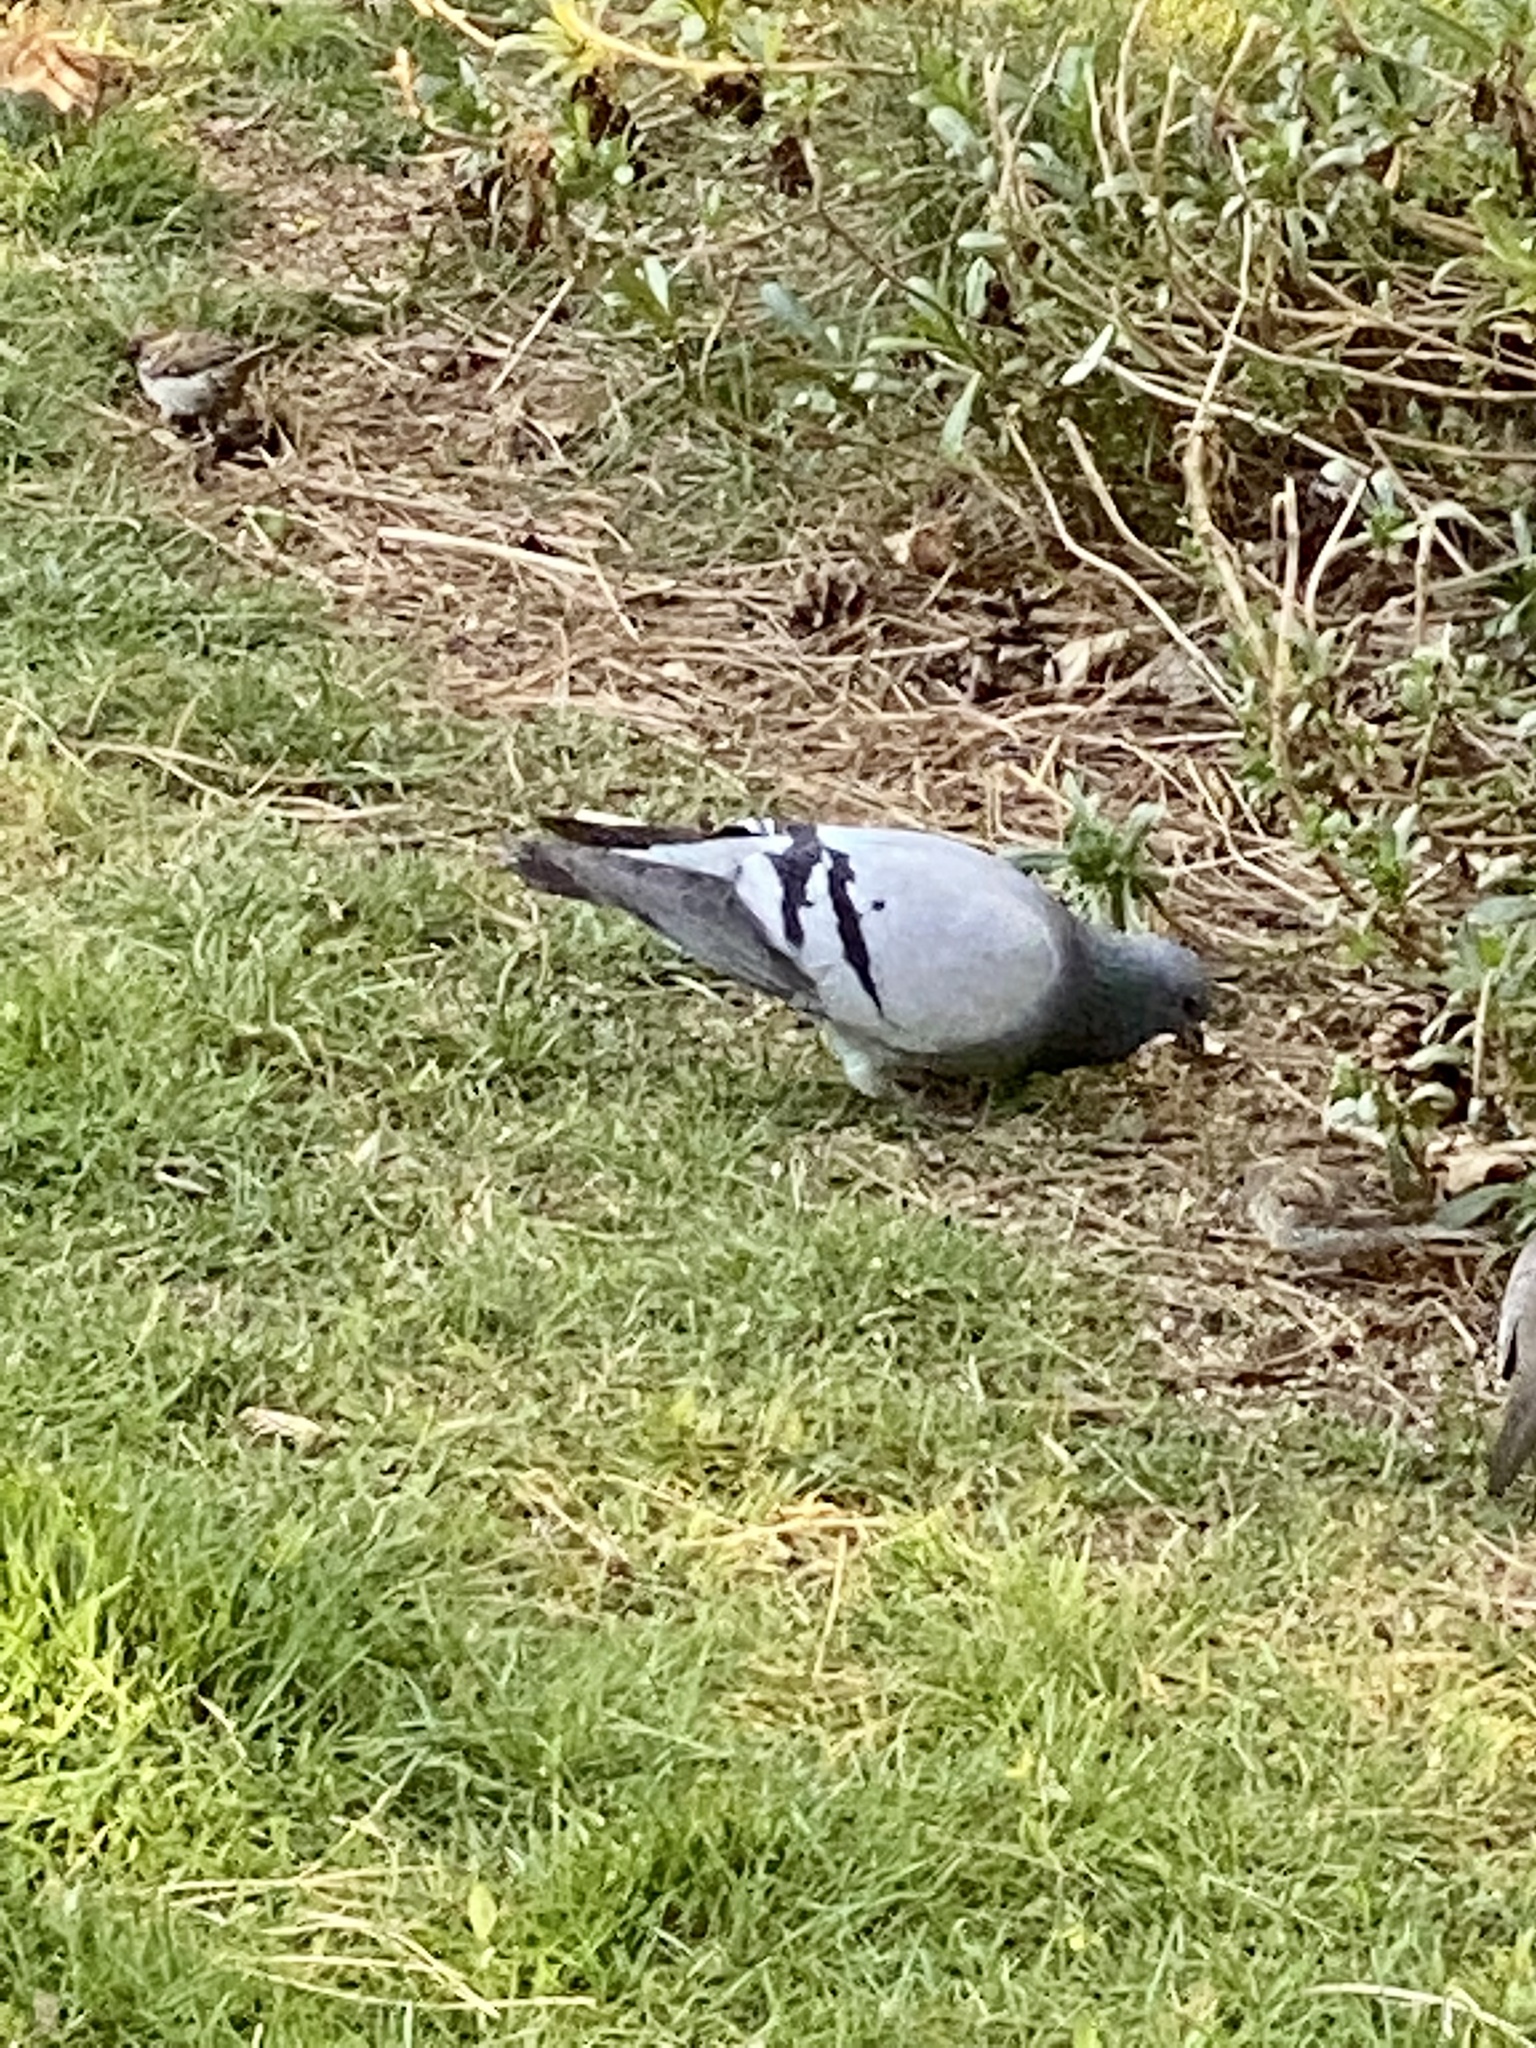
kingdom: Animalia
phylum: Chordata
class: Aves
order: Columbiformes
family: Columbidae
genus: Columba
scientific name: Columba livia
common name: Rock pigeon
